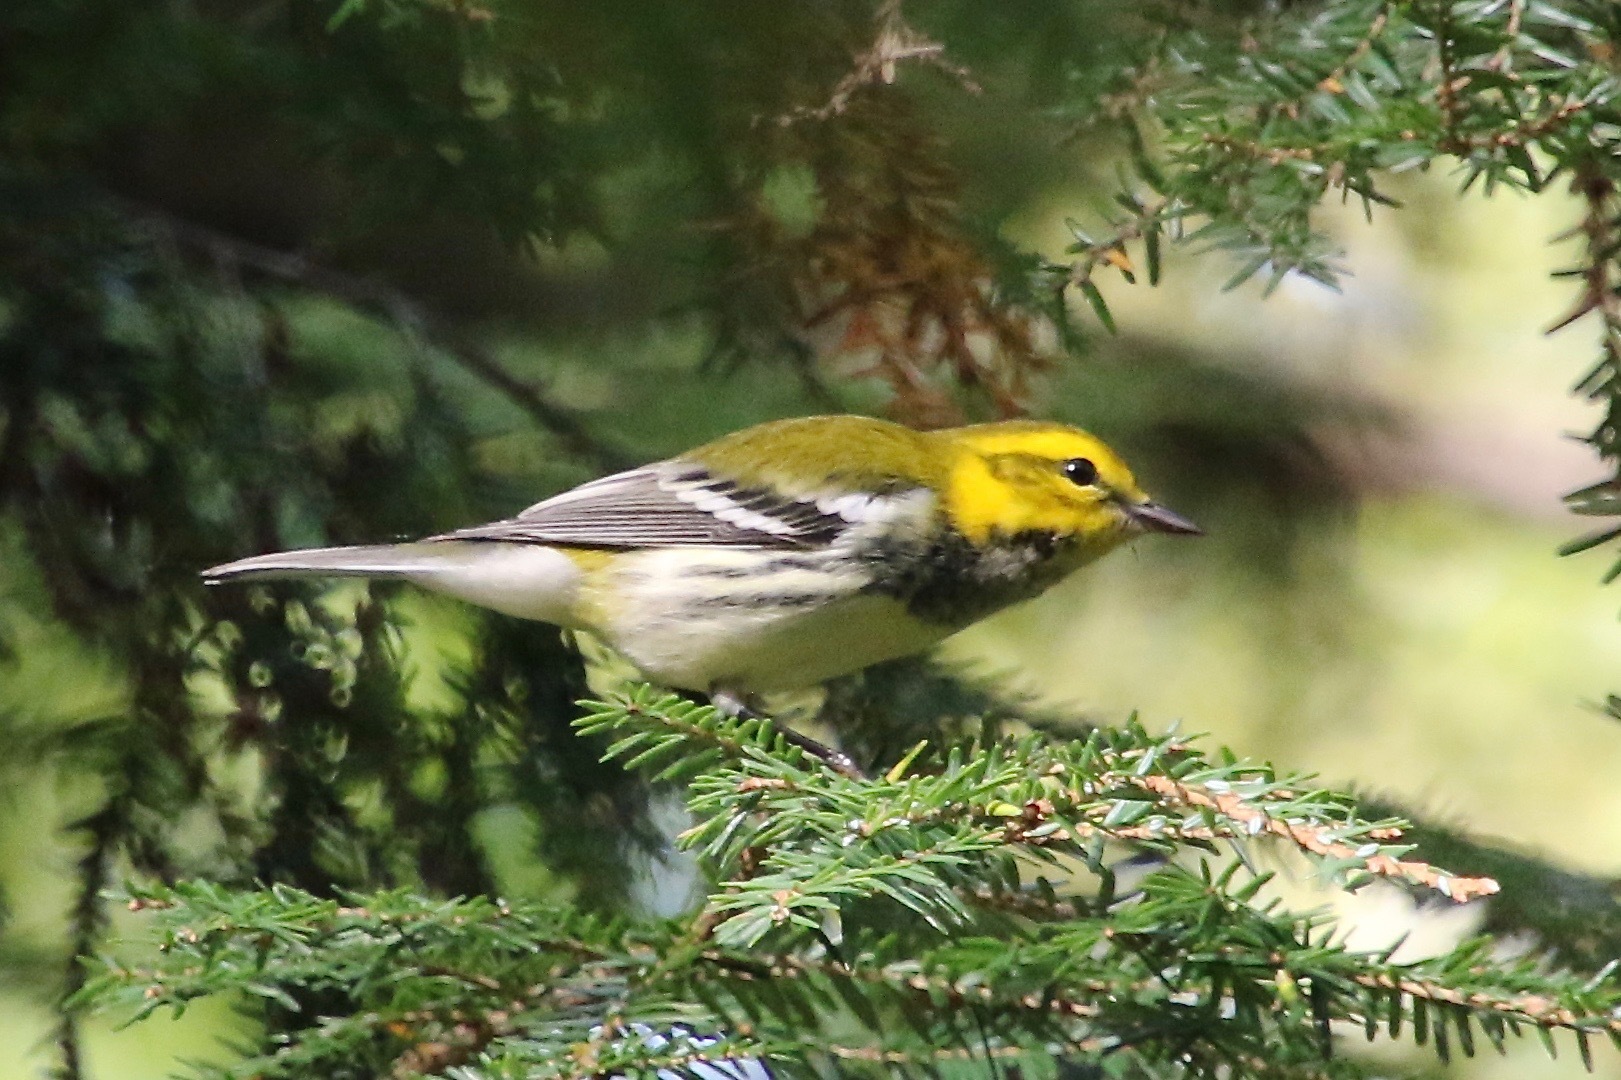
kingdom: Animalia
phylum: Chordata
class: Aves
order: Passeriformes
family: Parulidae
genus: Setophaga
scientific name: Setophaga virens
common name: Black-throated green warbler
